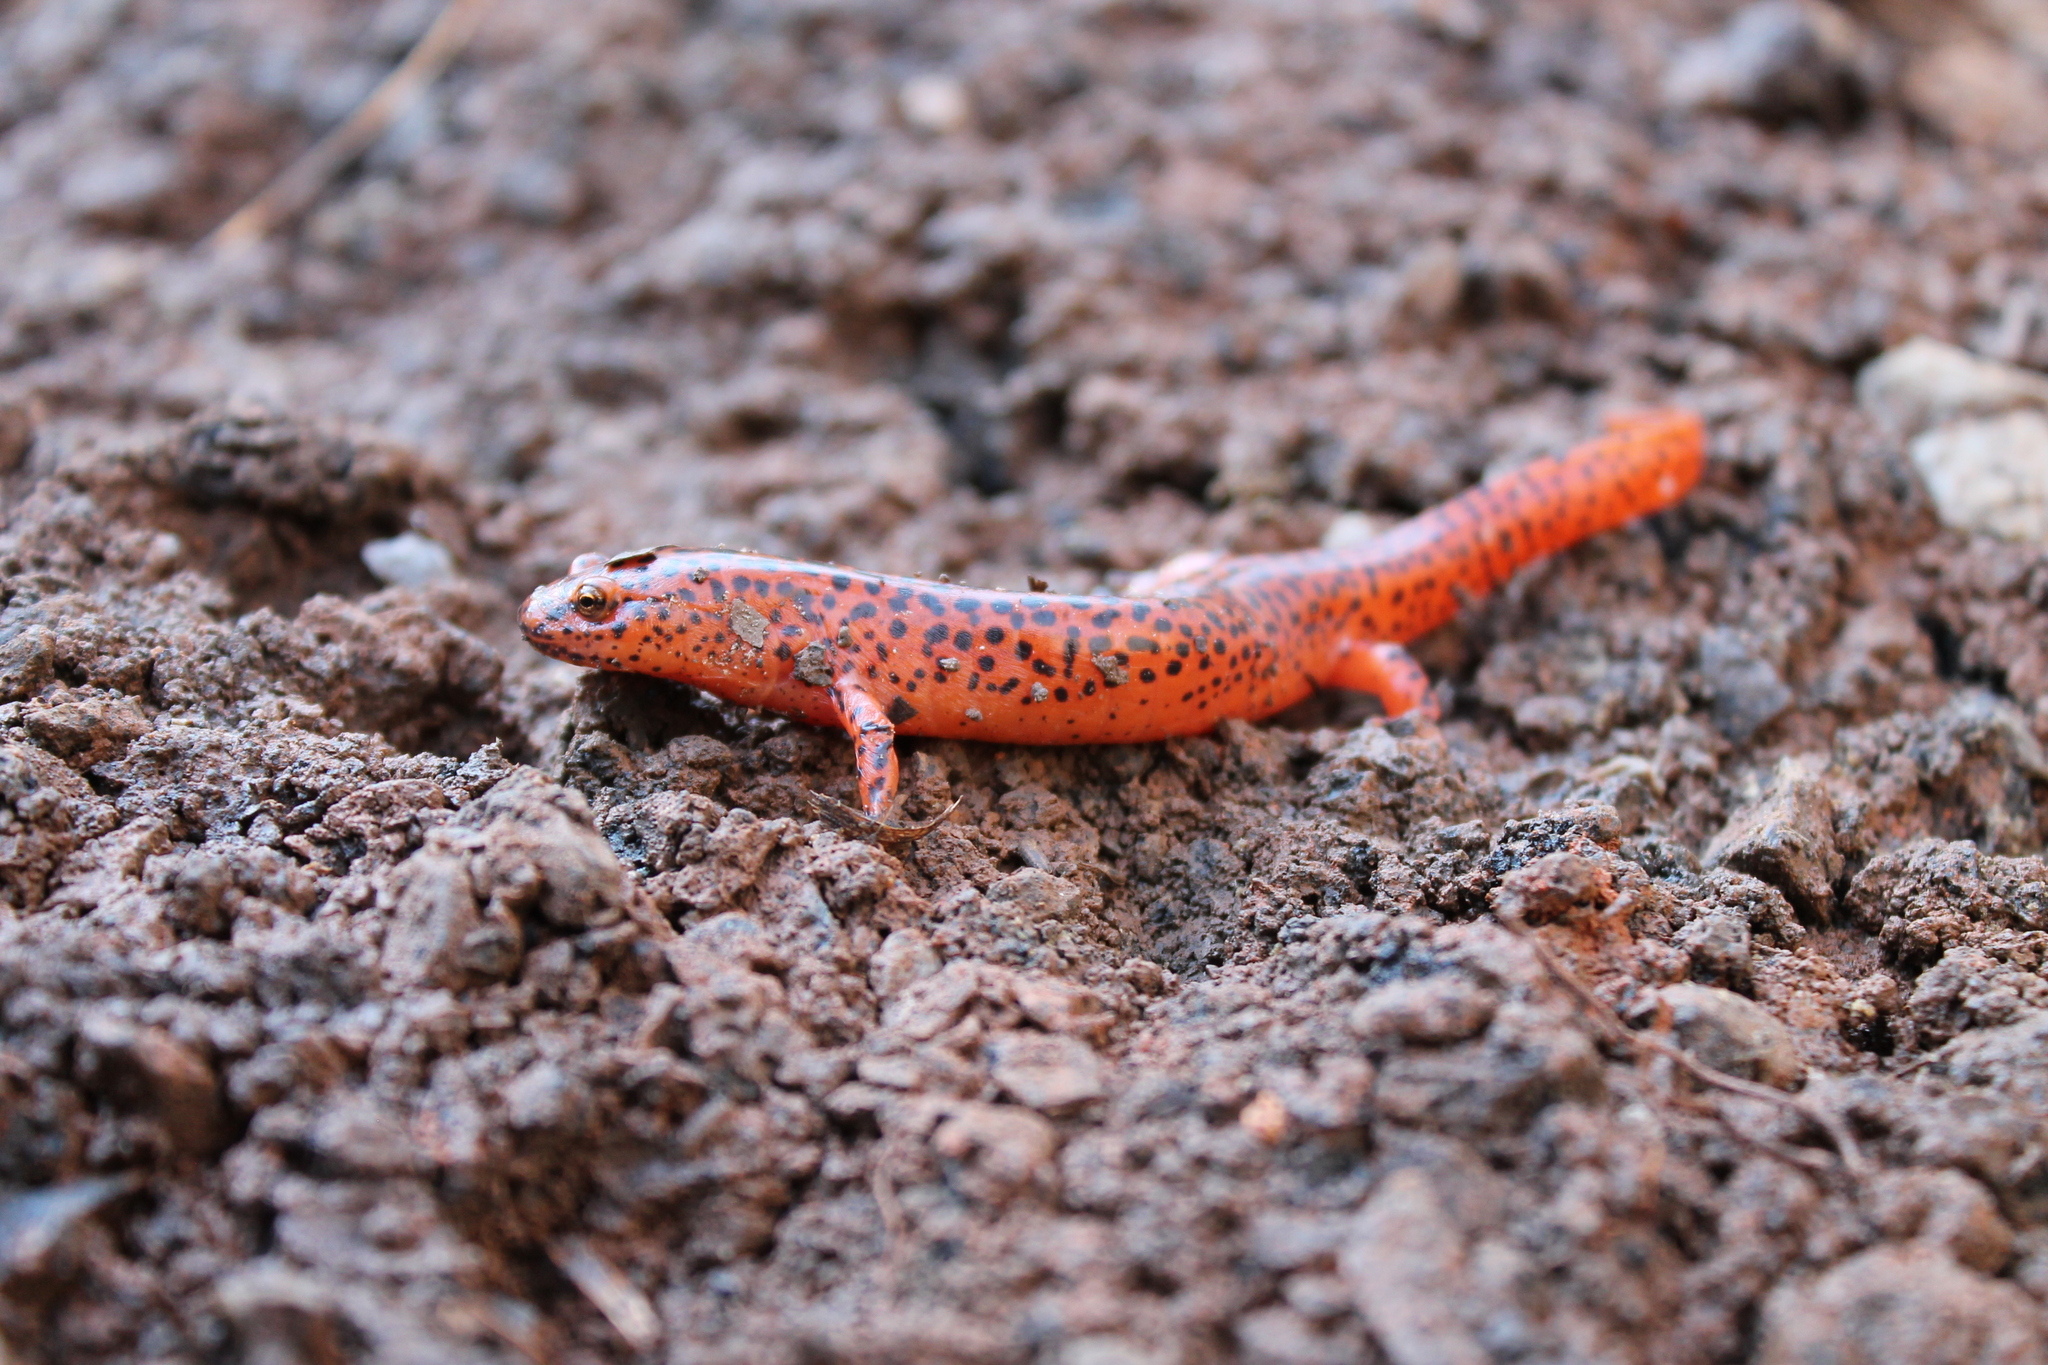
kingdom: Animalia
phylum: Chordata
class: Amphibia
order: Caudata
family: Plethodontidae
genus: Pseudotriton
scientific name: Pseudotriton ruber
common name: Red salamander
